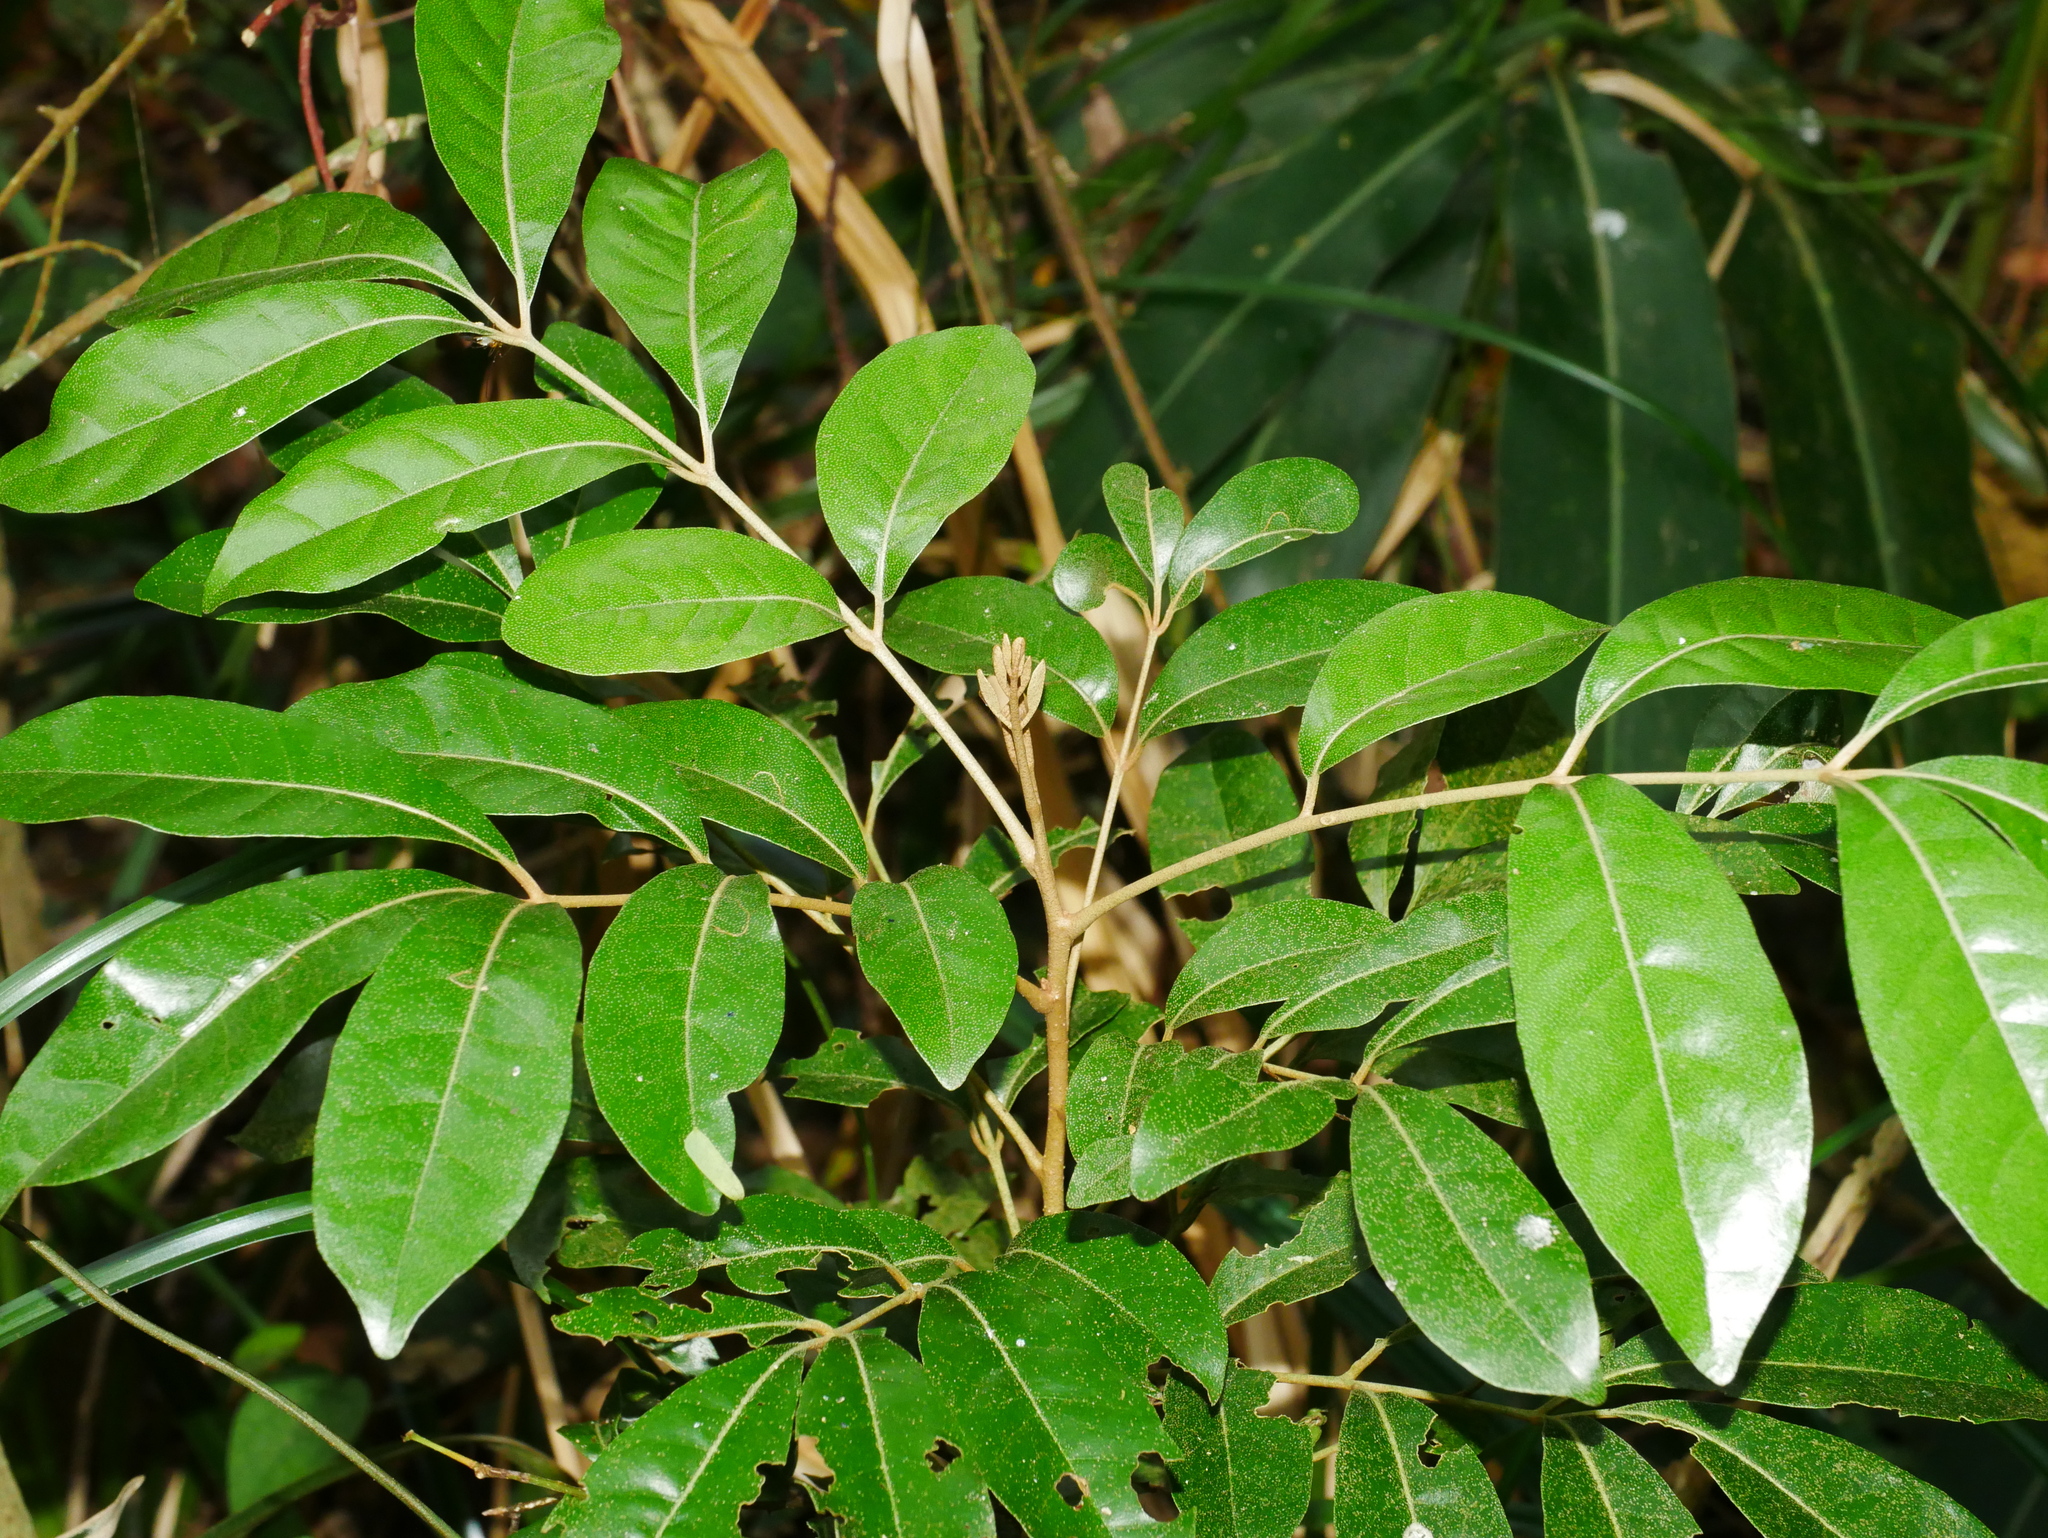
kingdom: Plantae
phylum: Tracheophyta
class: Magnoliopsida
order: Sapindales
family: Meliaceae
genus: Aglaia
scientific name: Aglaia rimosa
